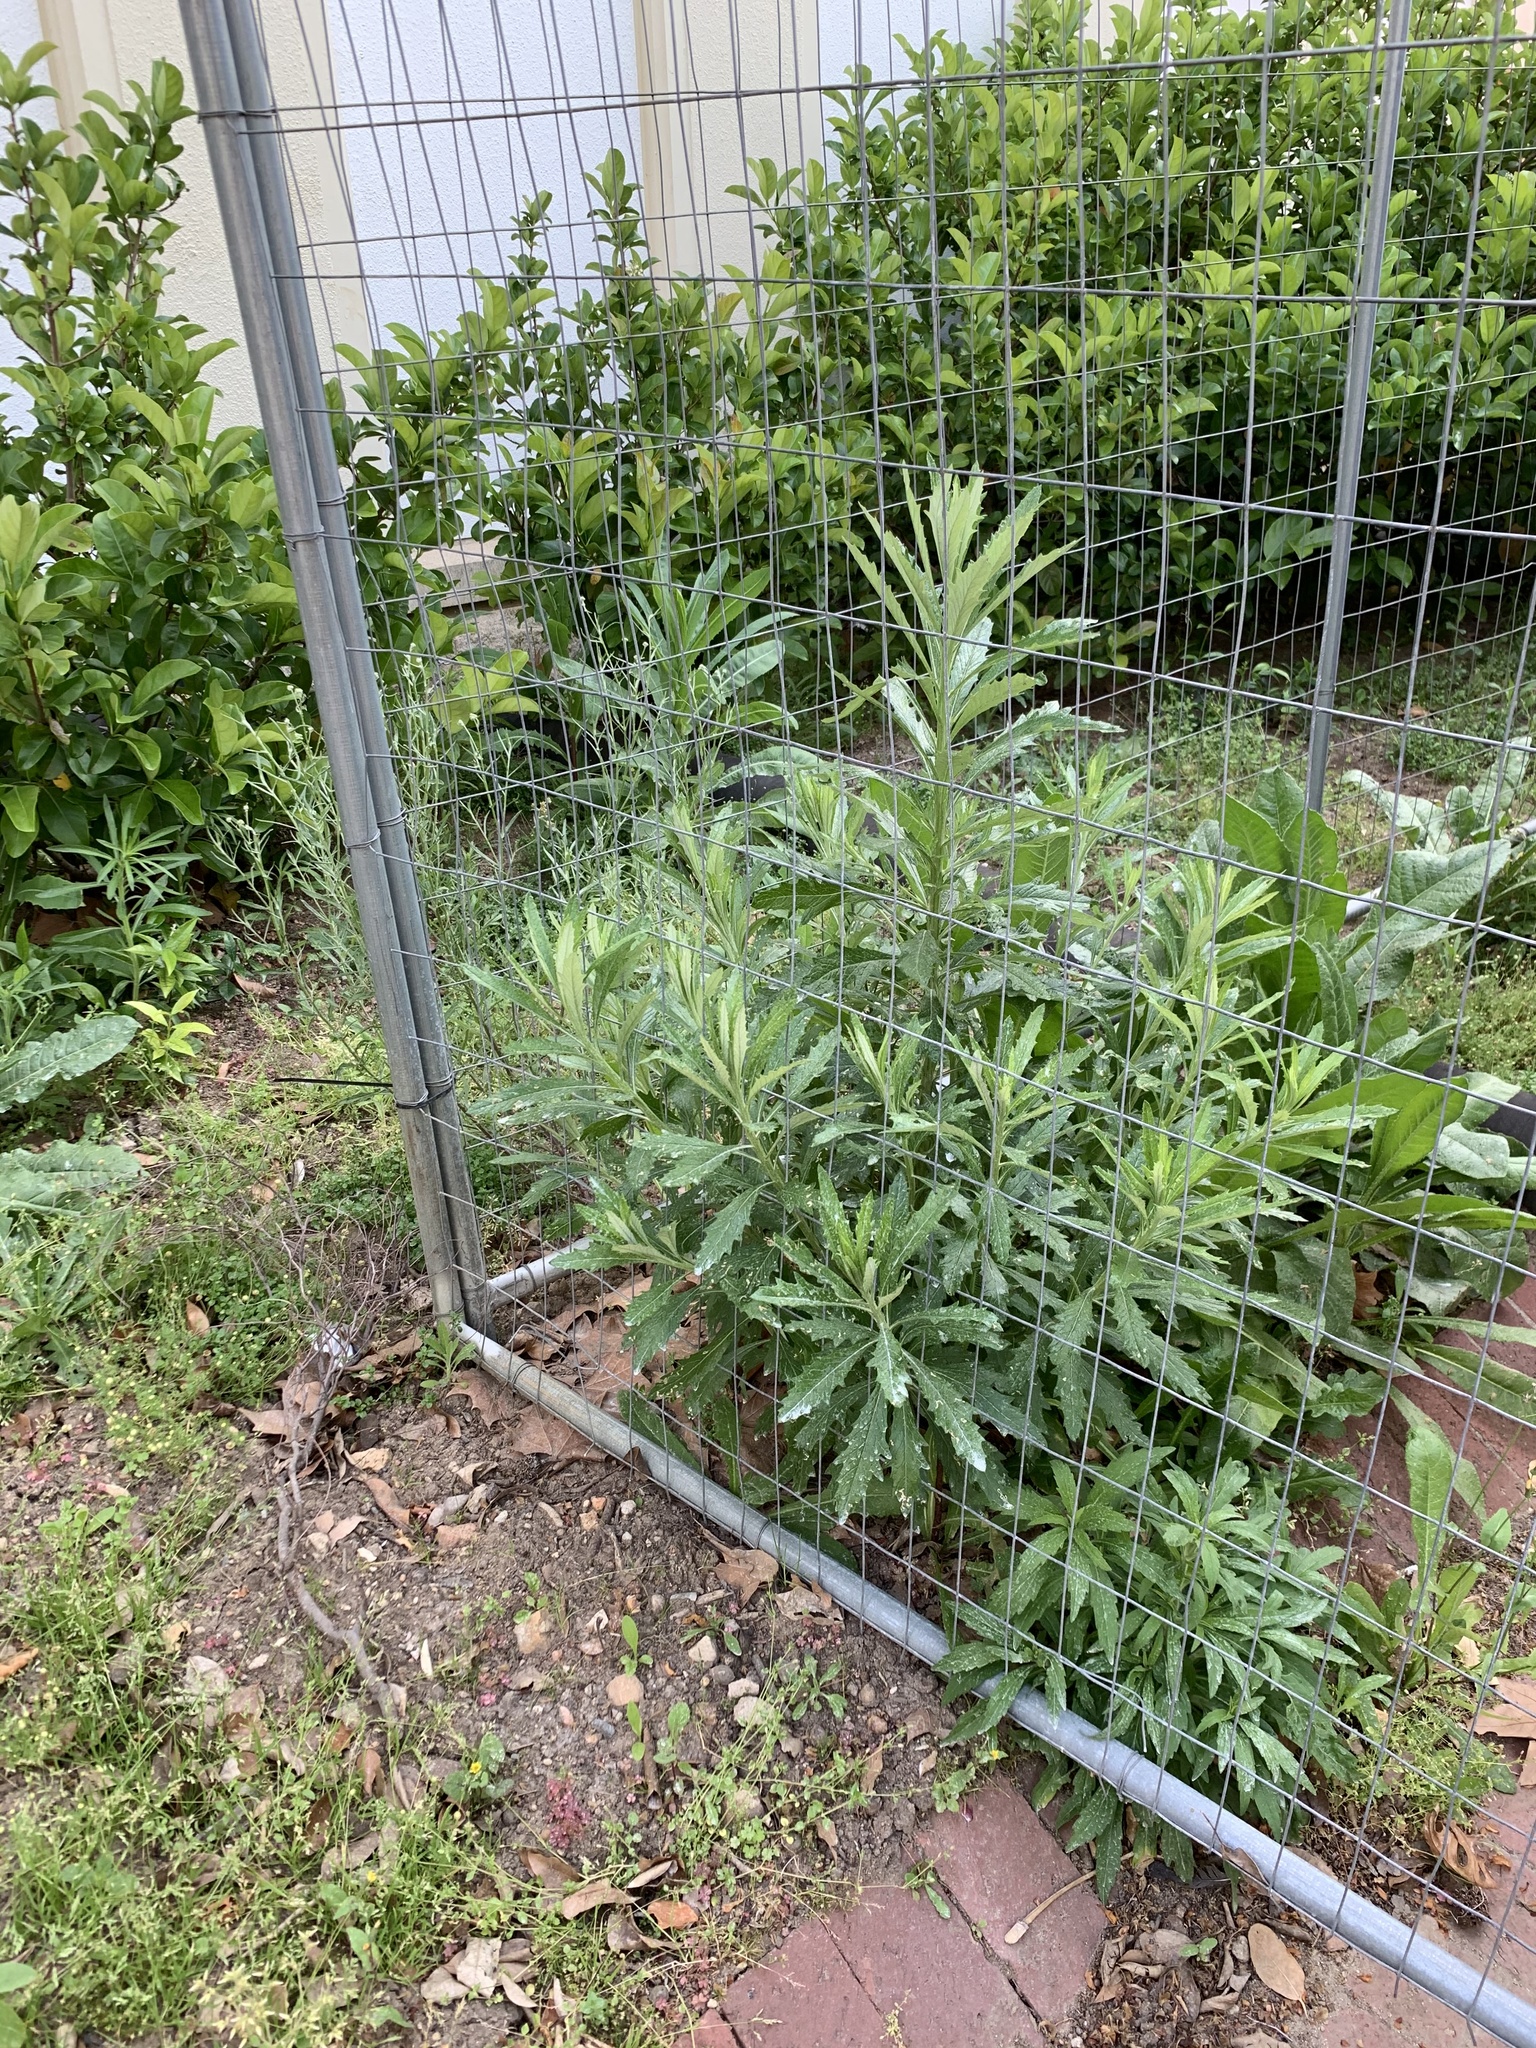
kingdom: Plantae
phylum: Tracheophyta
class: Magnoliopsida
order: Asterales
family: Asteraceae
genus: Senecio
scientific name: Senecio pterophorus
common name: Shoddy ragwort
